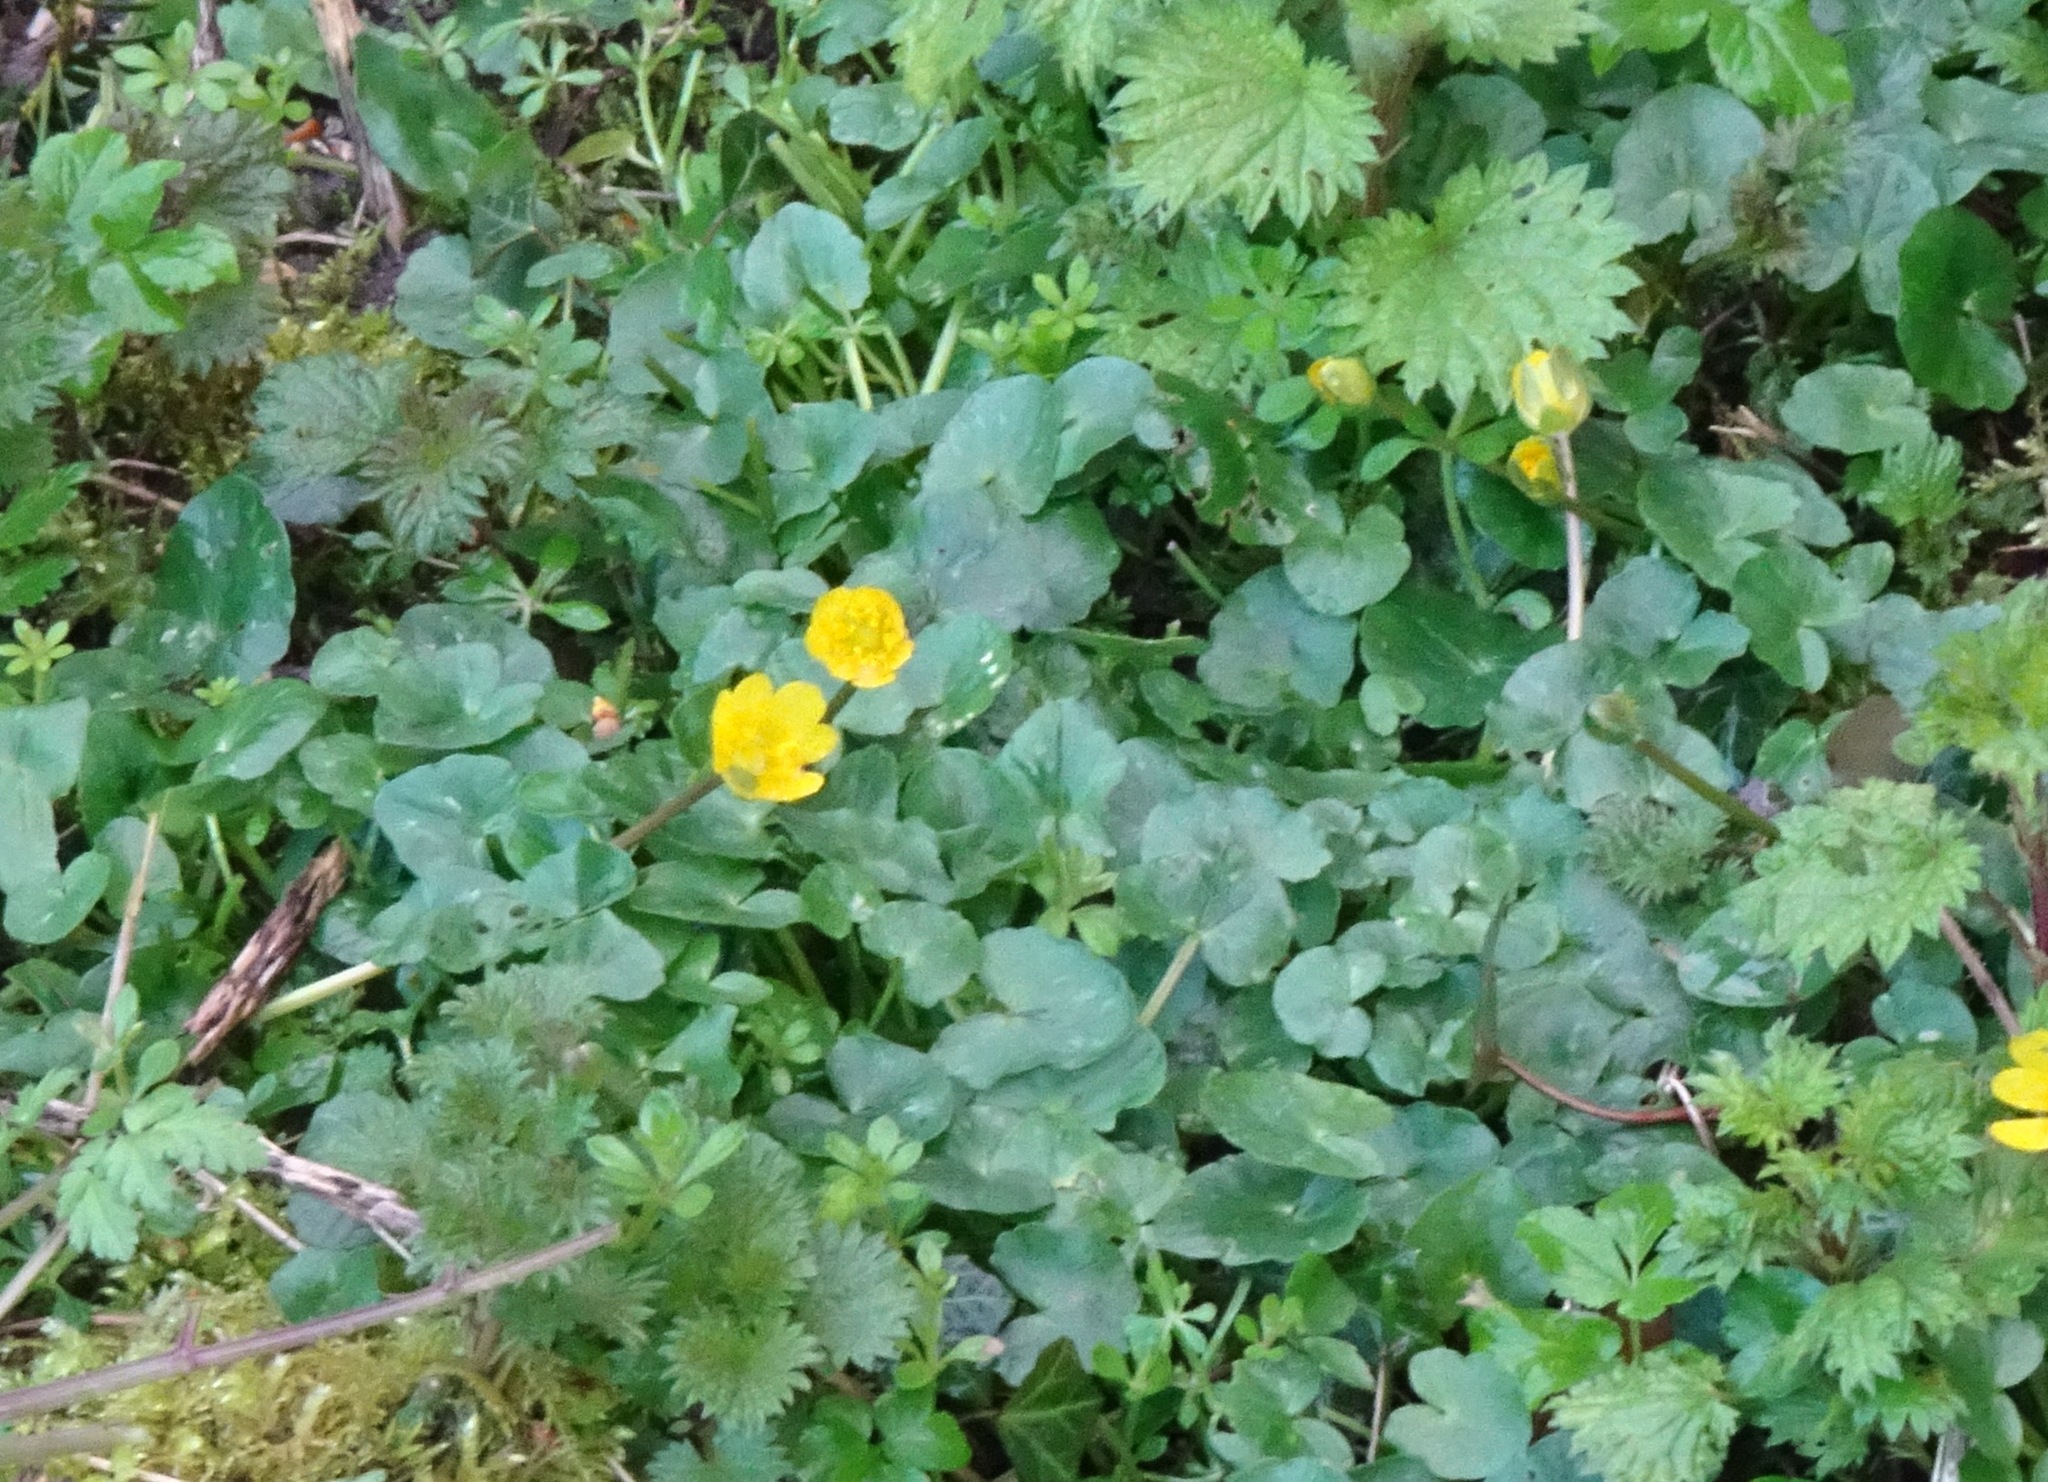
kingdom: Plantae
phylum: Tracheophyta
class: Magnoliopsida
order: Ranunculales
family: Ranunculaceae
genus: Ficaria
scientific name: Ficaria verna
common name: Lesser celandine
